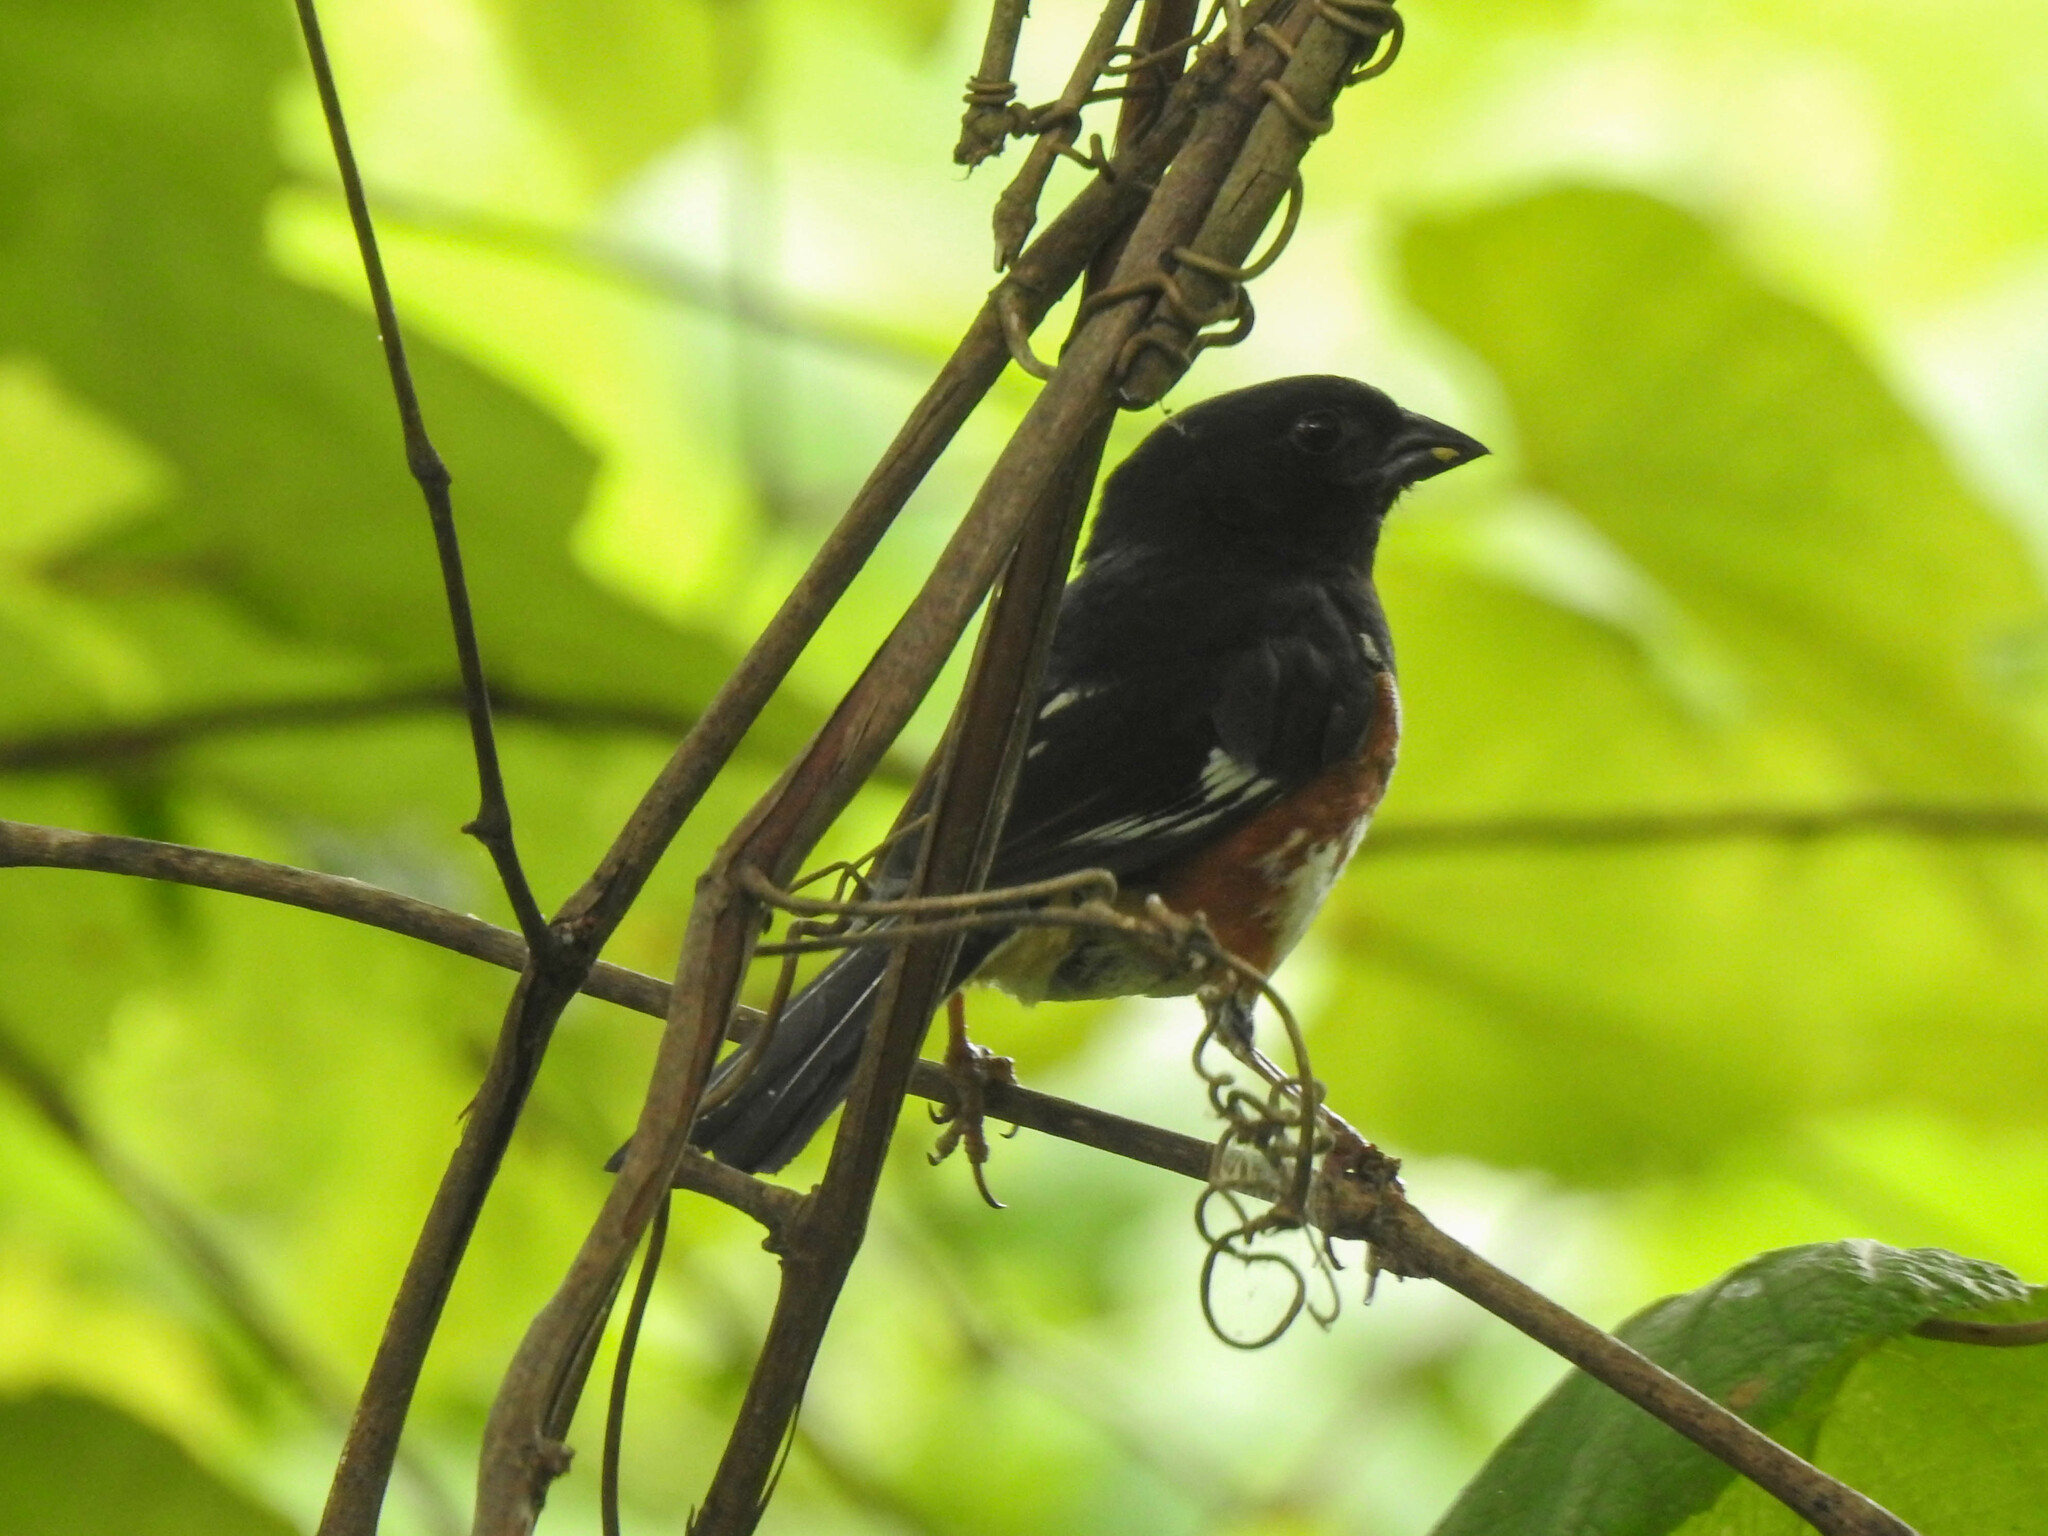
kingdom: Animalia
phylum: Chordata
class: Aves
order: Passeriformes
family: Passerellidae
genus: Pipilo
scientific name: Pipilo erythrophthalmus
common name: Eastern towhee
